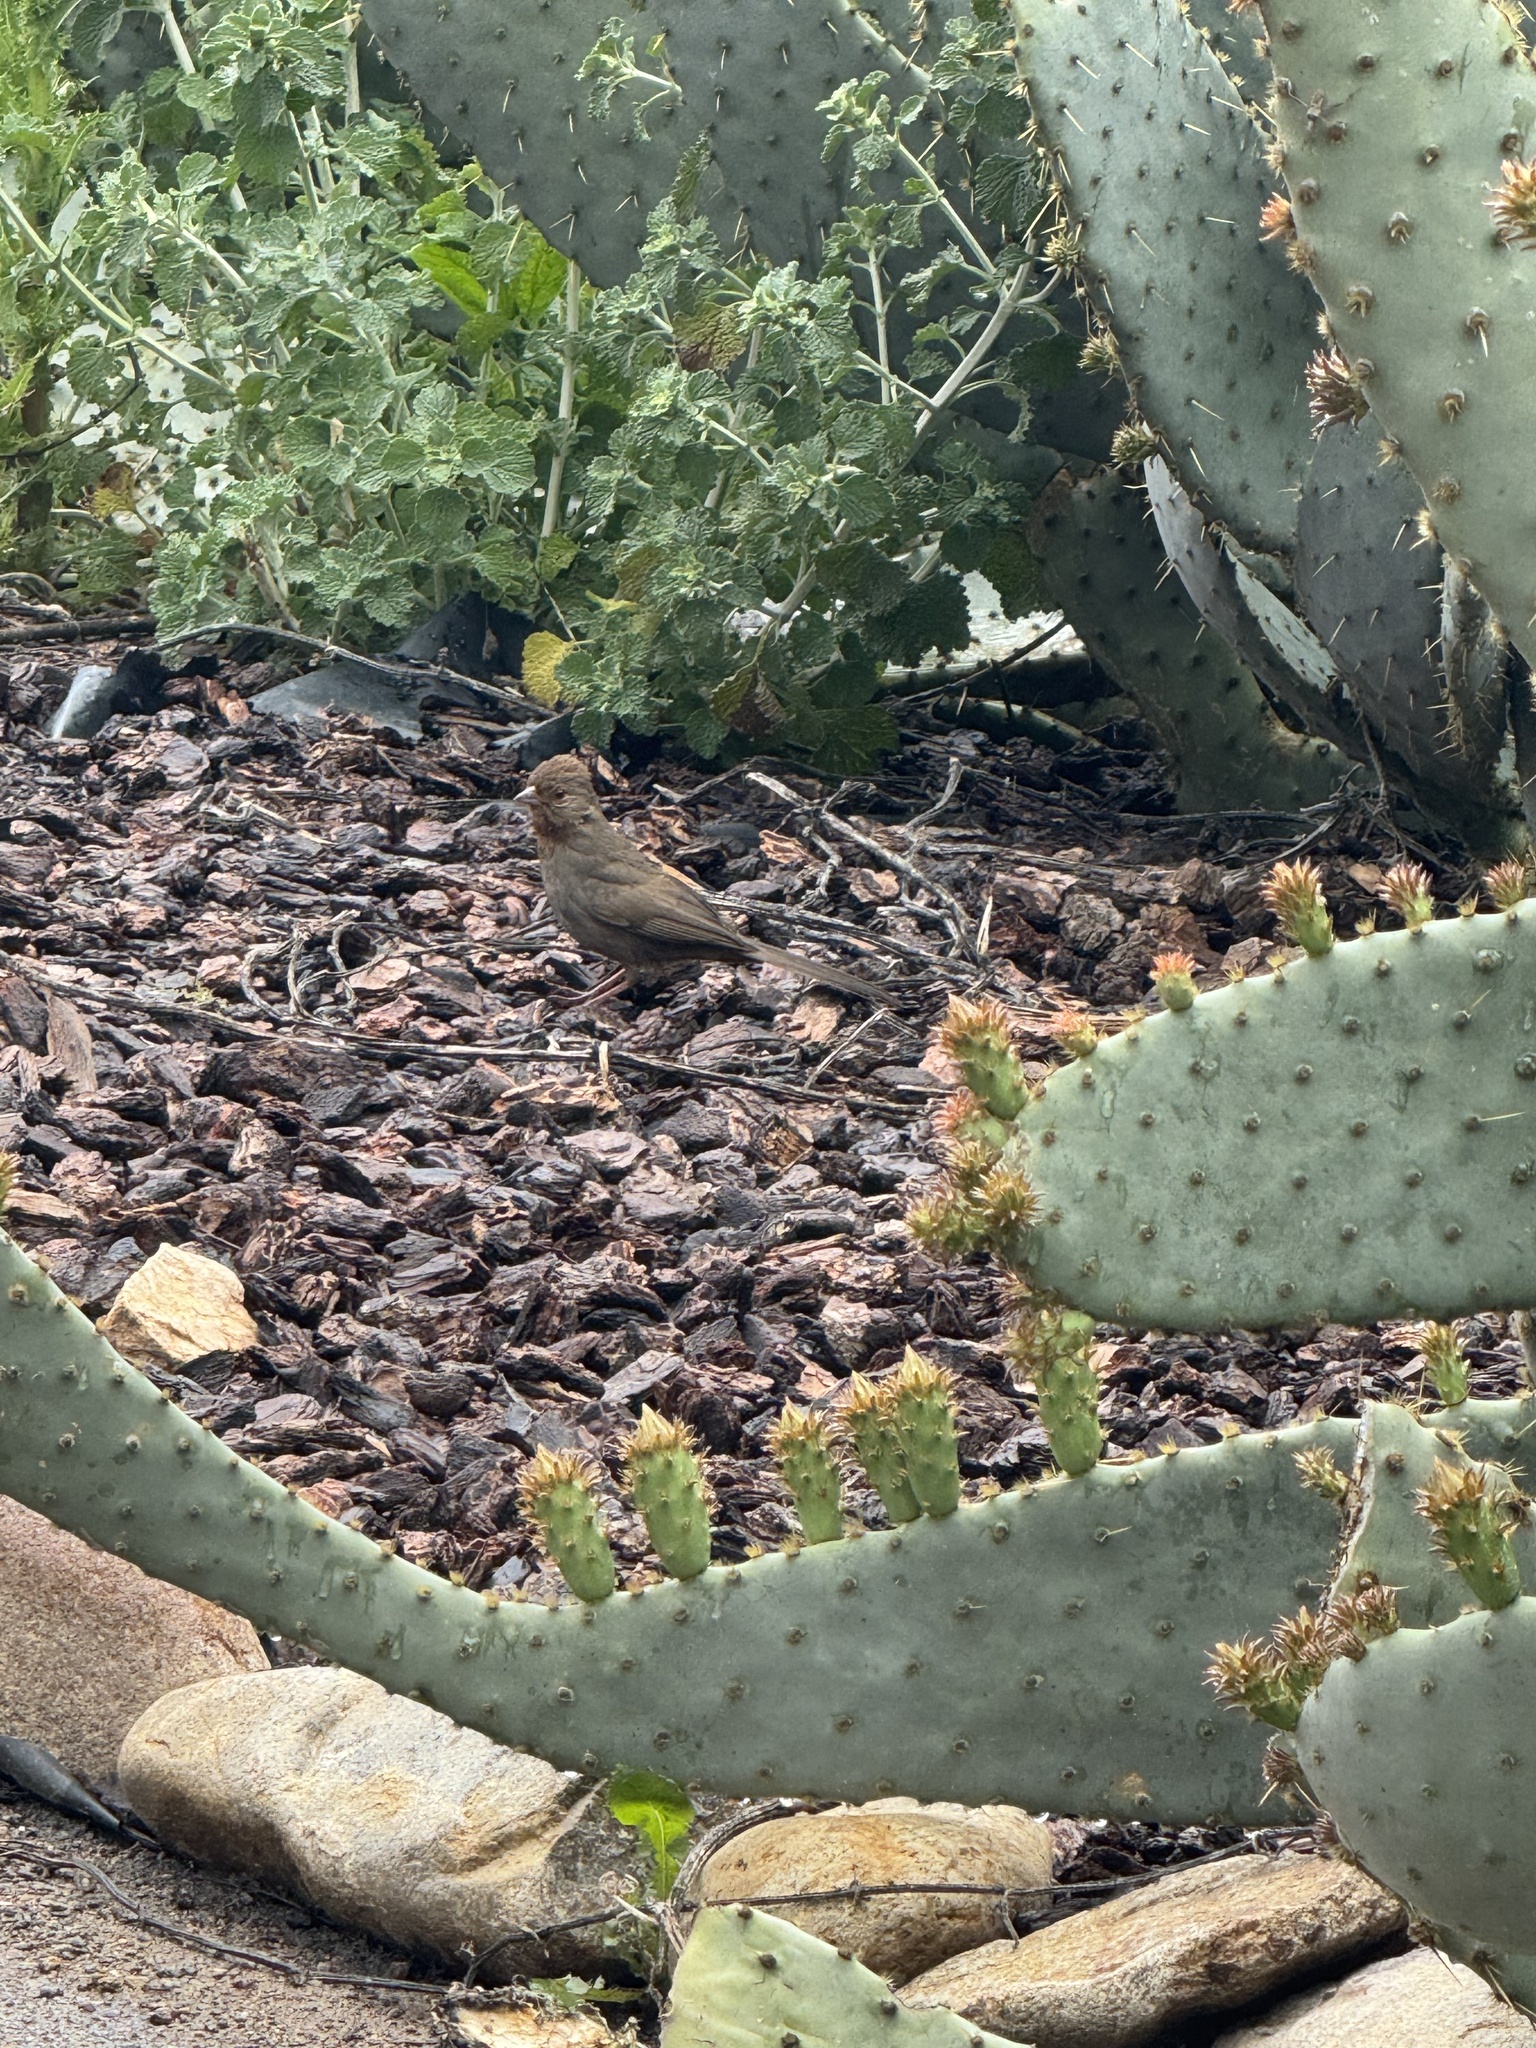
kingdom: Animalia
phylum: Chordata
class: Aves
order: Passeriformes
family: Passerellidae
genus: Melozone
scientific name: Melozone crissalis
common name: California towhee
